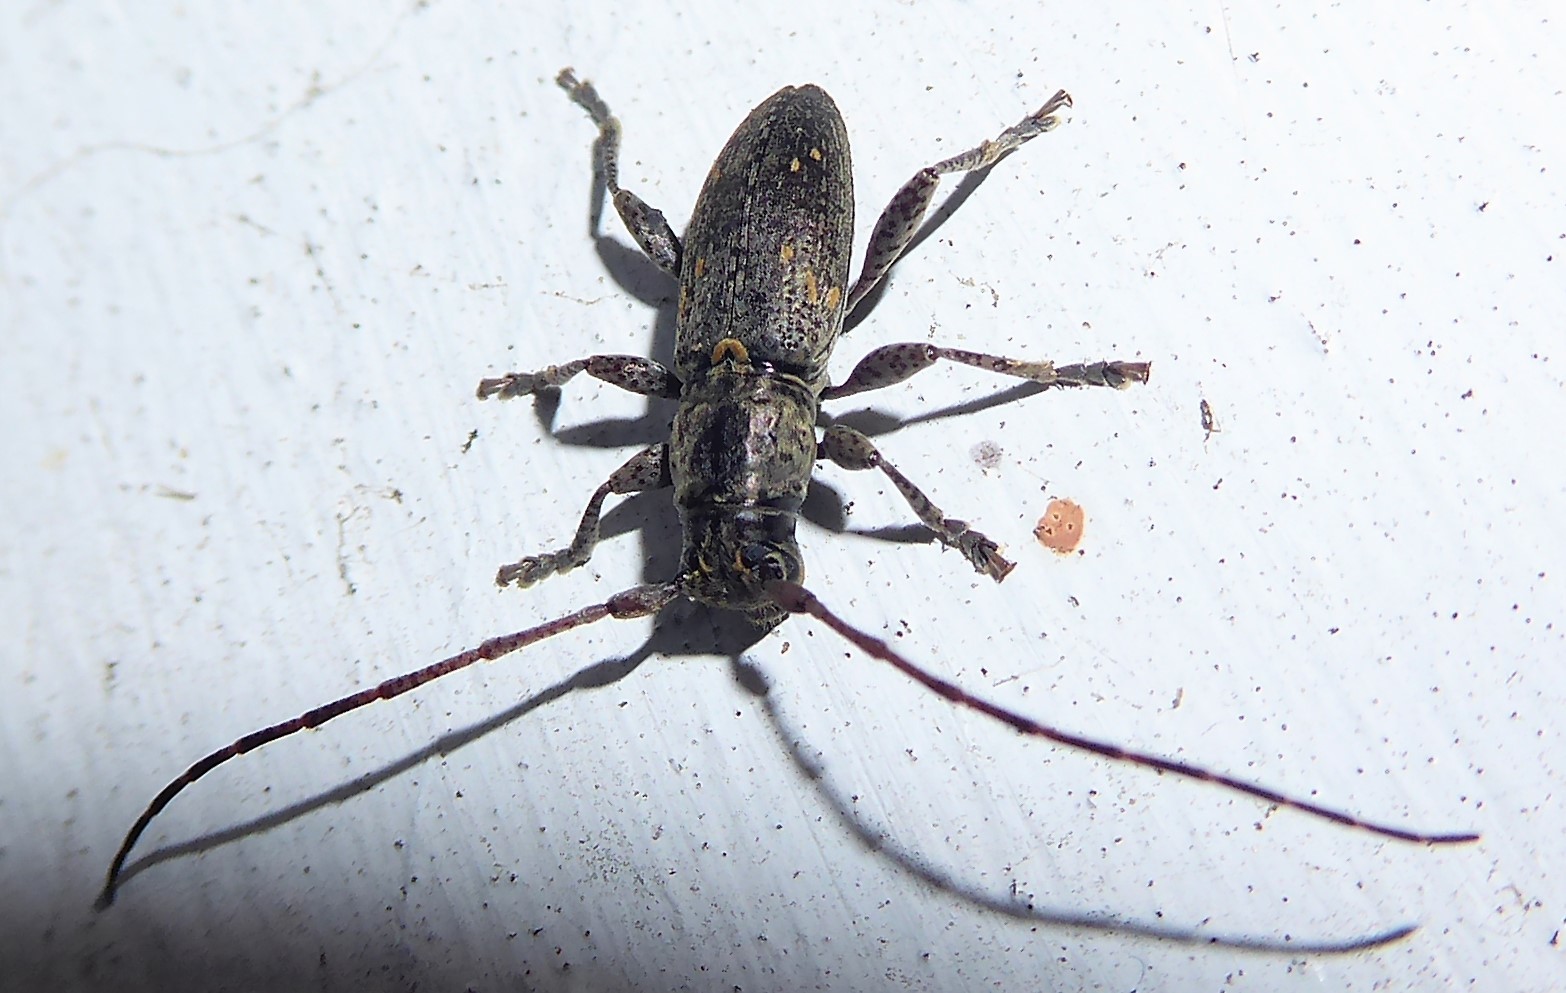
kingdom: Animalia
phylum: Arthropoda
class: Insecta
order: Coleoptera
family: Cerambycidae
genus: Xylotoles
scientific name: Xylotoles griseus
